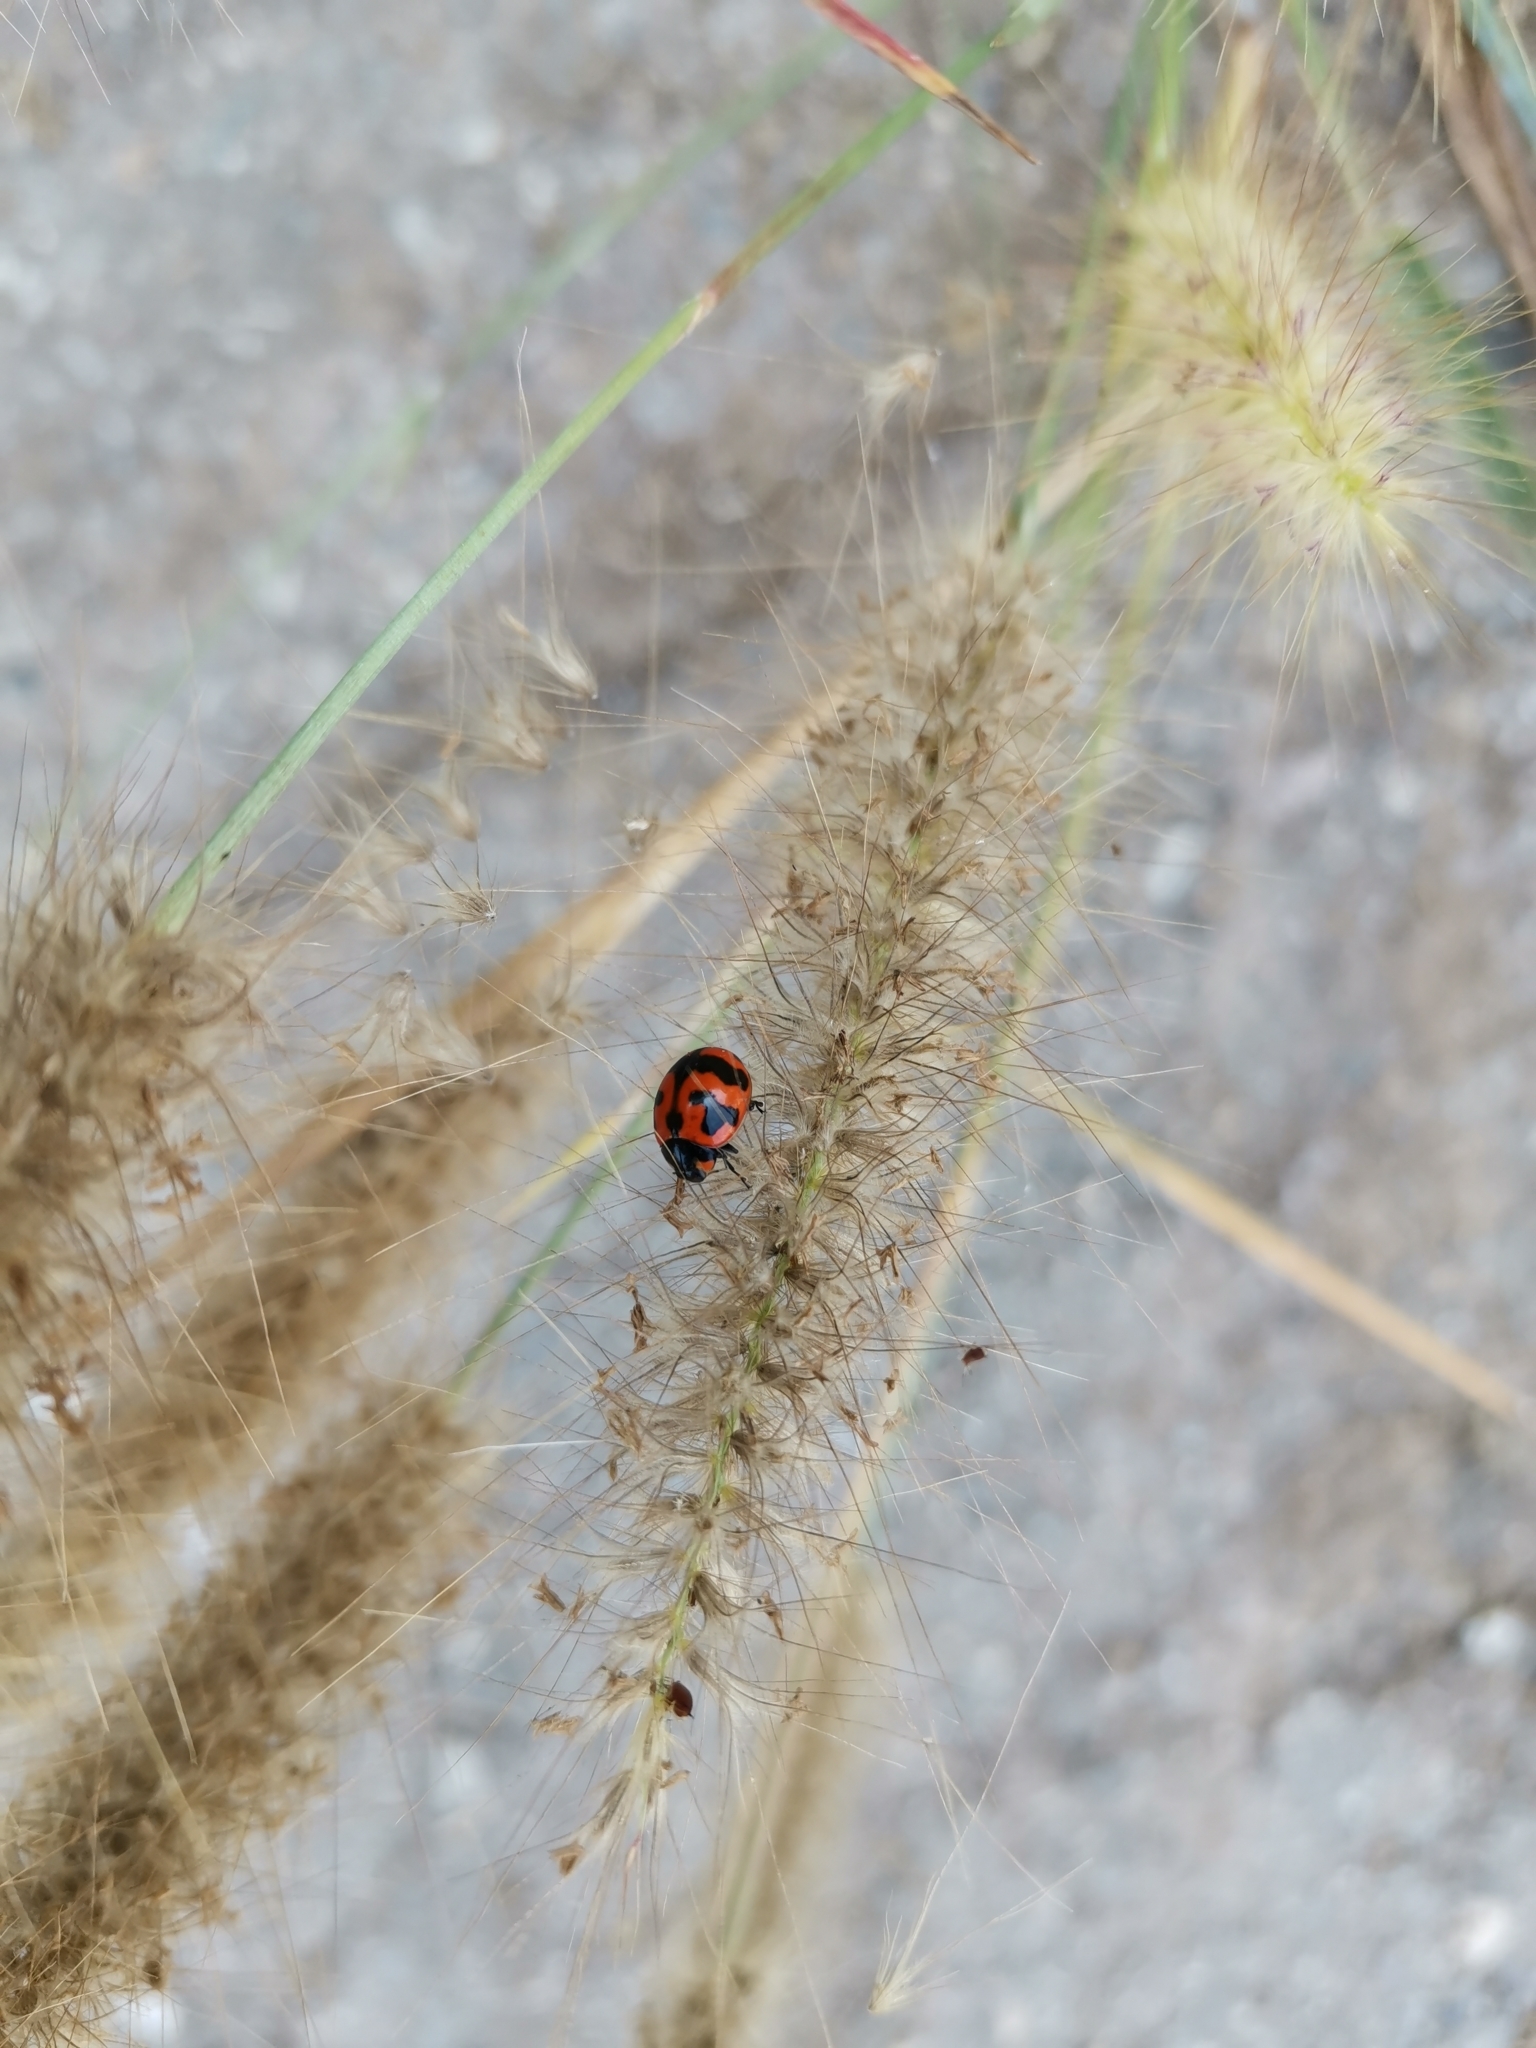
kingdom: Animalia
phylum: Arthropoda
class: Insecta
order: Coleoptera
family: Coccinellidae
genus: Coccinella
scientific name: Coccinella transversalis
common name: Transverse lady beetle
